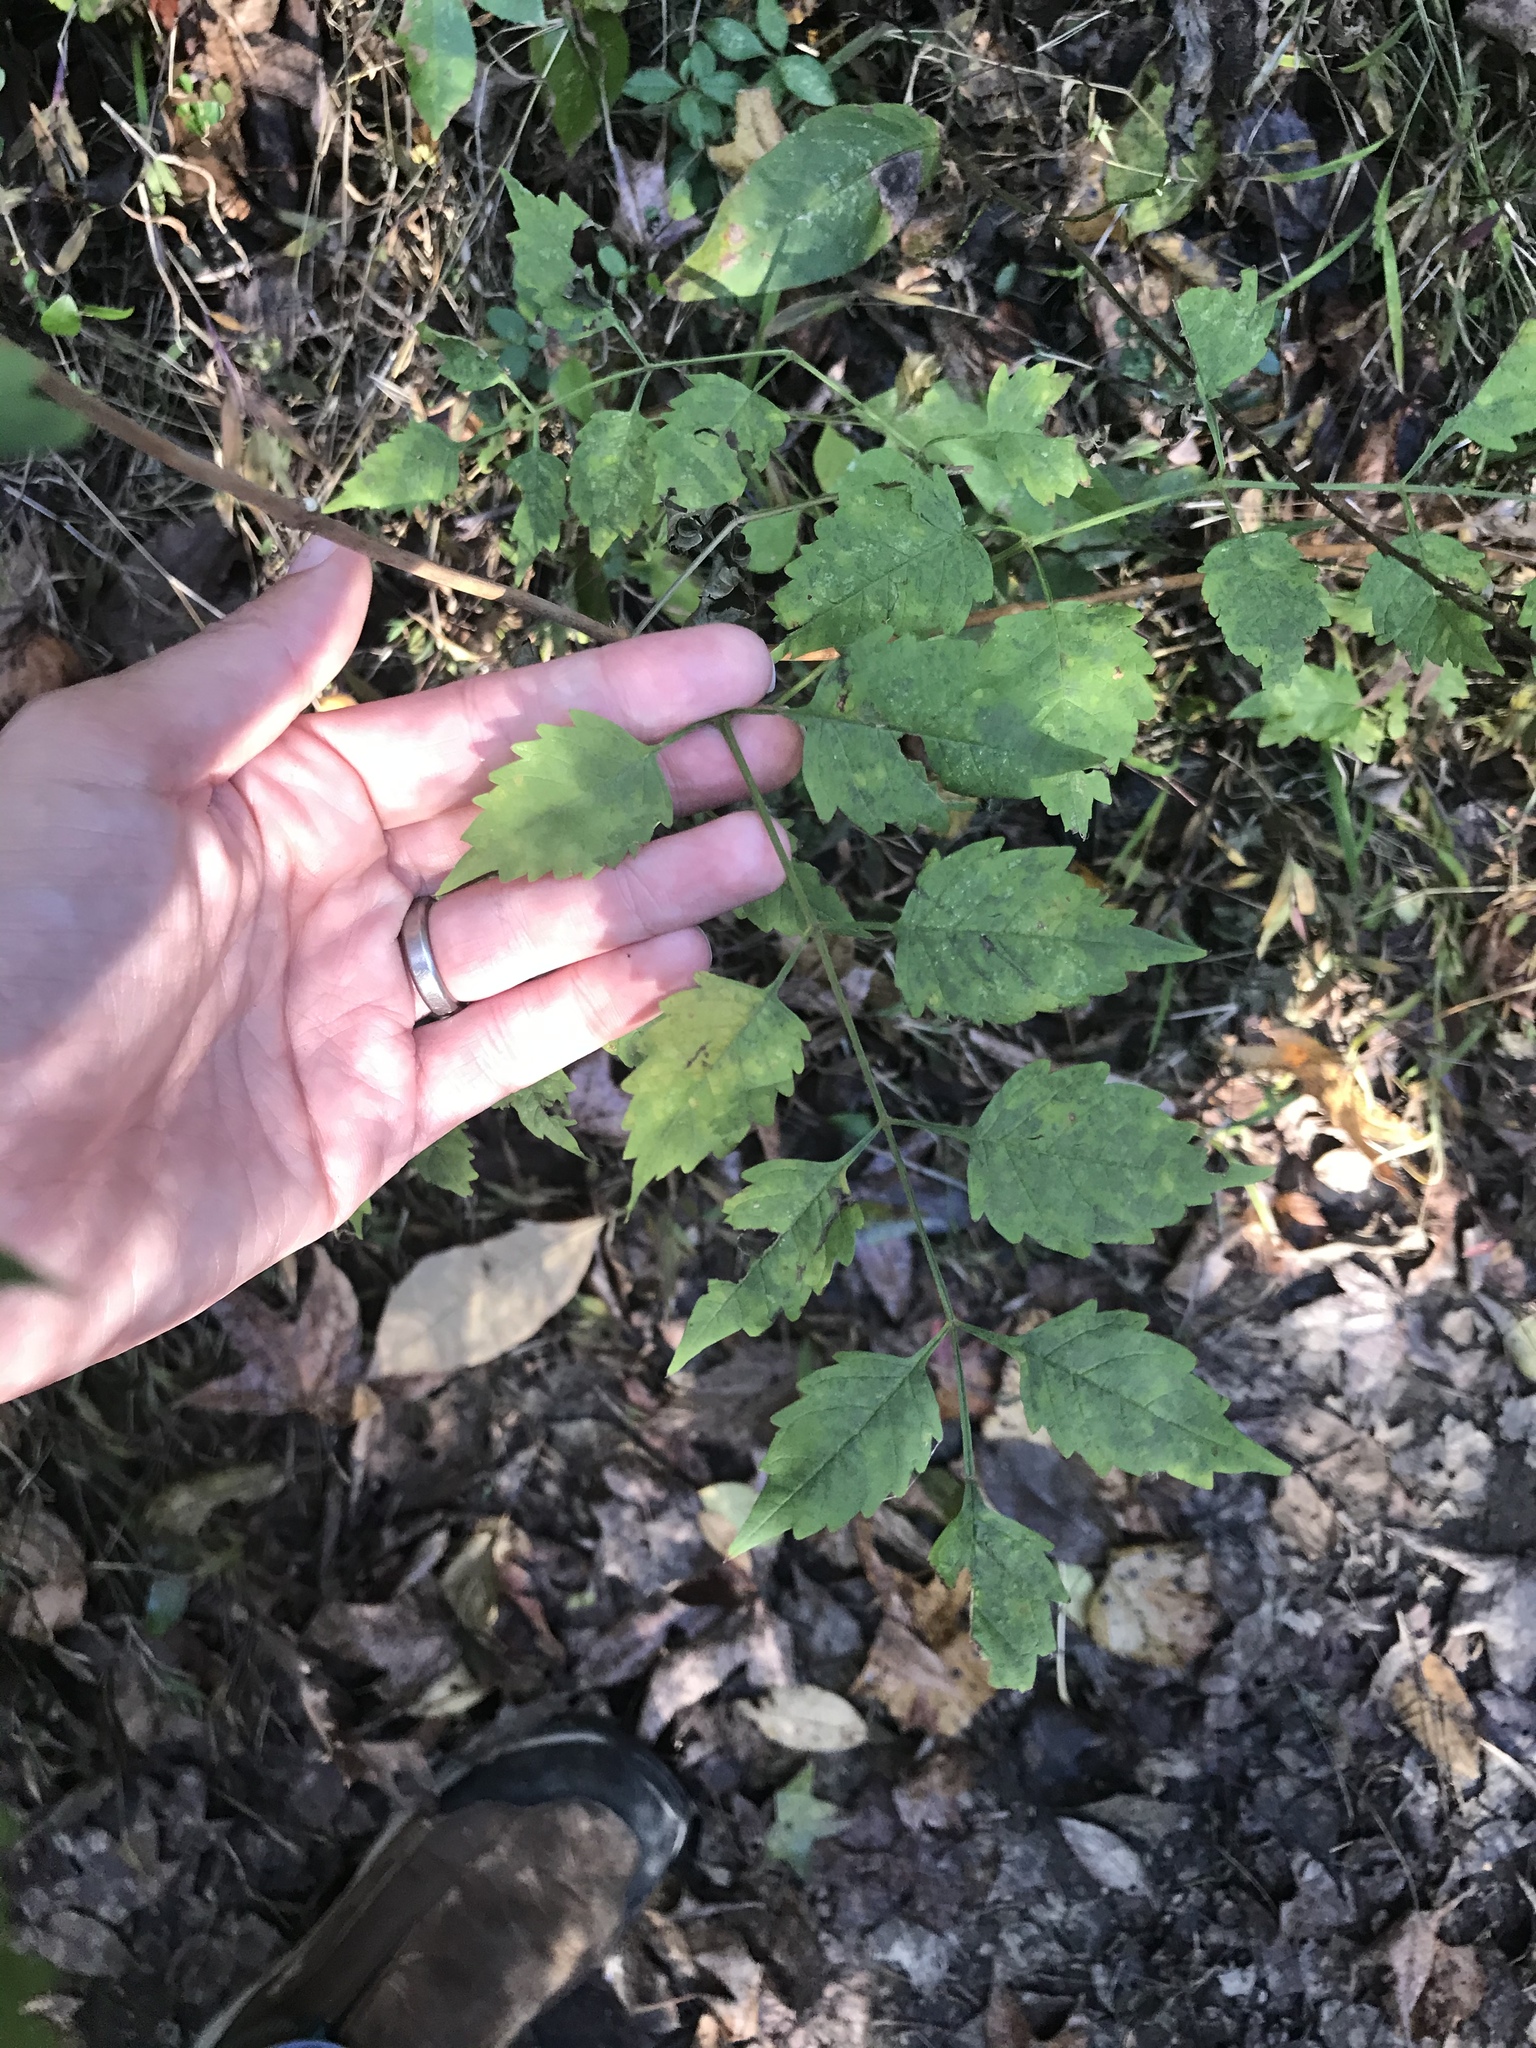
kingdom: Plantae
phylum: Tracheophyta
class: Magnoliopsida
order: Lamiales
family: Bignoniaceae
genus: Campsis
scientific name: Campsis radicans
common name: Trumpet-creeper
